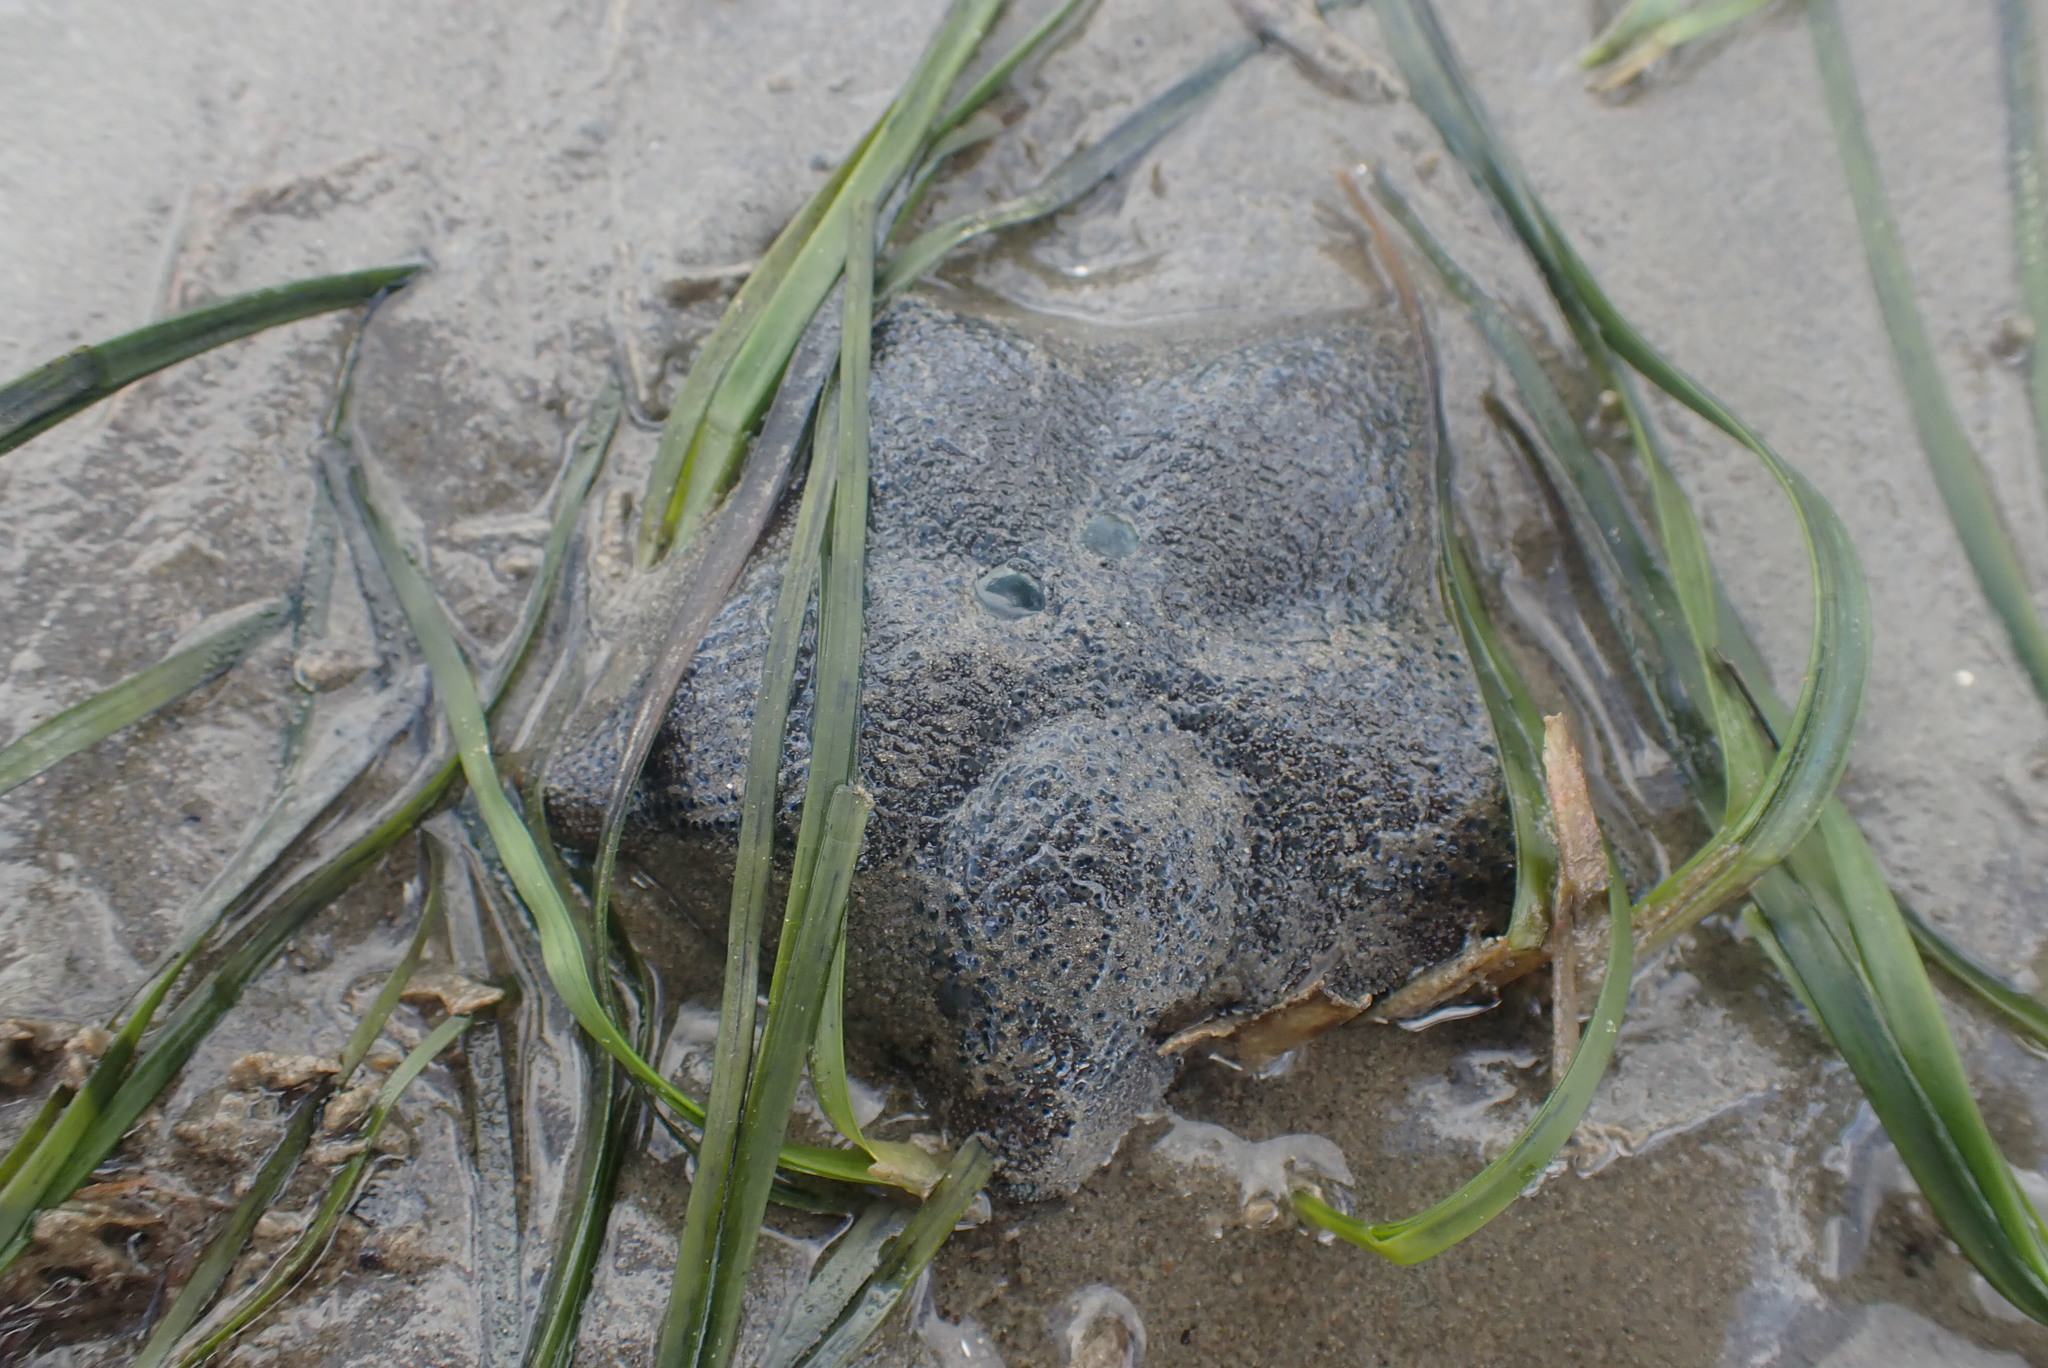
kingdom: Animalia
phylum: Echinodermata
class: Asteroidea
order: Valvatida
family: Asterinidae
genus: Patiriella
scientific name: Patiriella regularis
